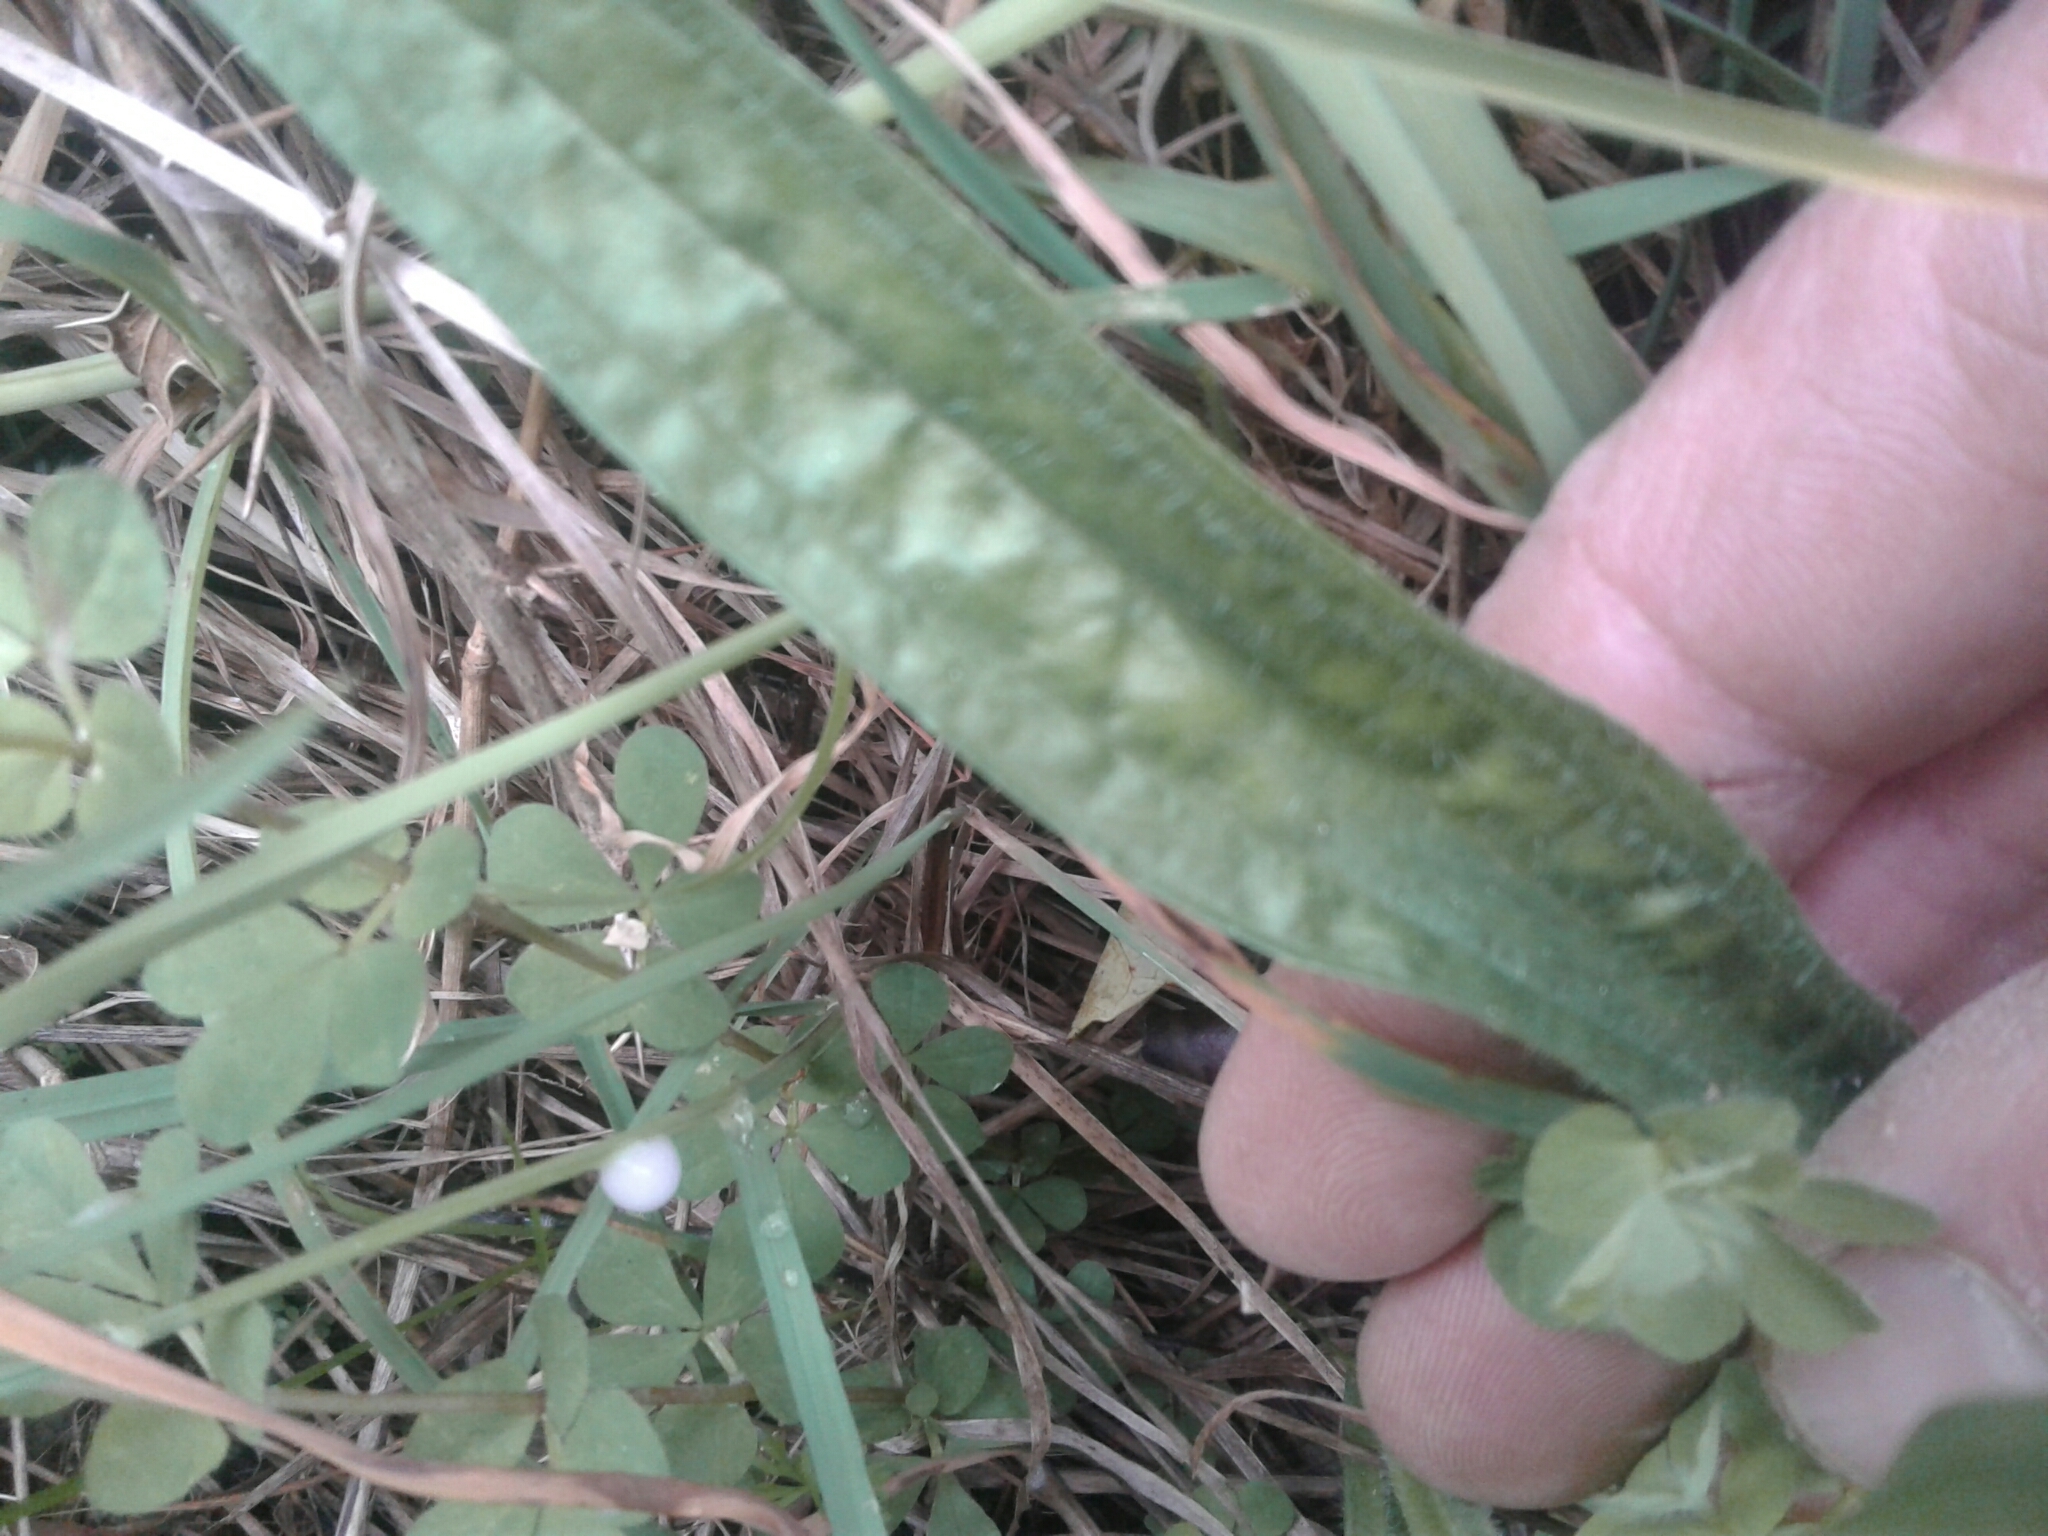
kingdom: Plantae
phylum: Tracheophyta
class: Magnoliopsida
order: Lamiales
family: Plantaginaceae
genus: Plantago
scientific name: Plantago lanceolata
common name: Ribwort plantain
